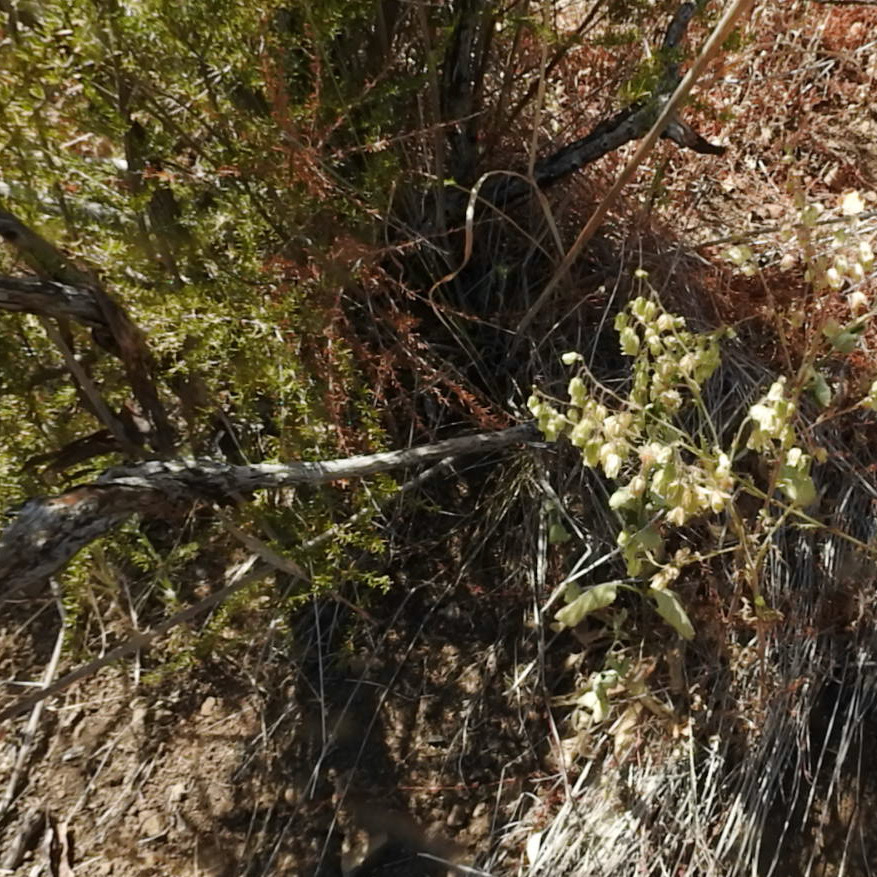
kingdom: Plantae
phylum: Tracheophyta
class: Magnoliopsida
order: Boraginales
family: Hydrophyllaceae
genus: Emmenanthe
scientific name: Emmenanthe penduliflora
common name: Whispering-bells
